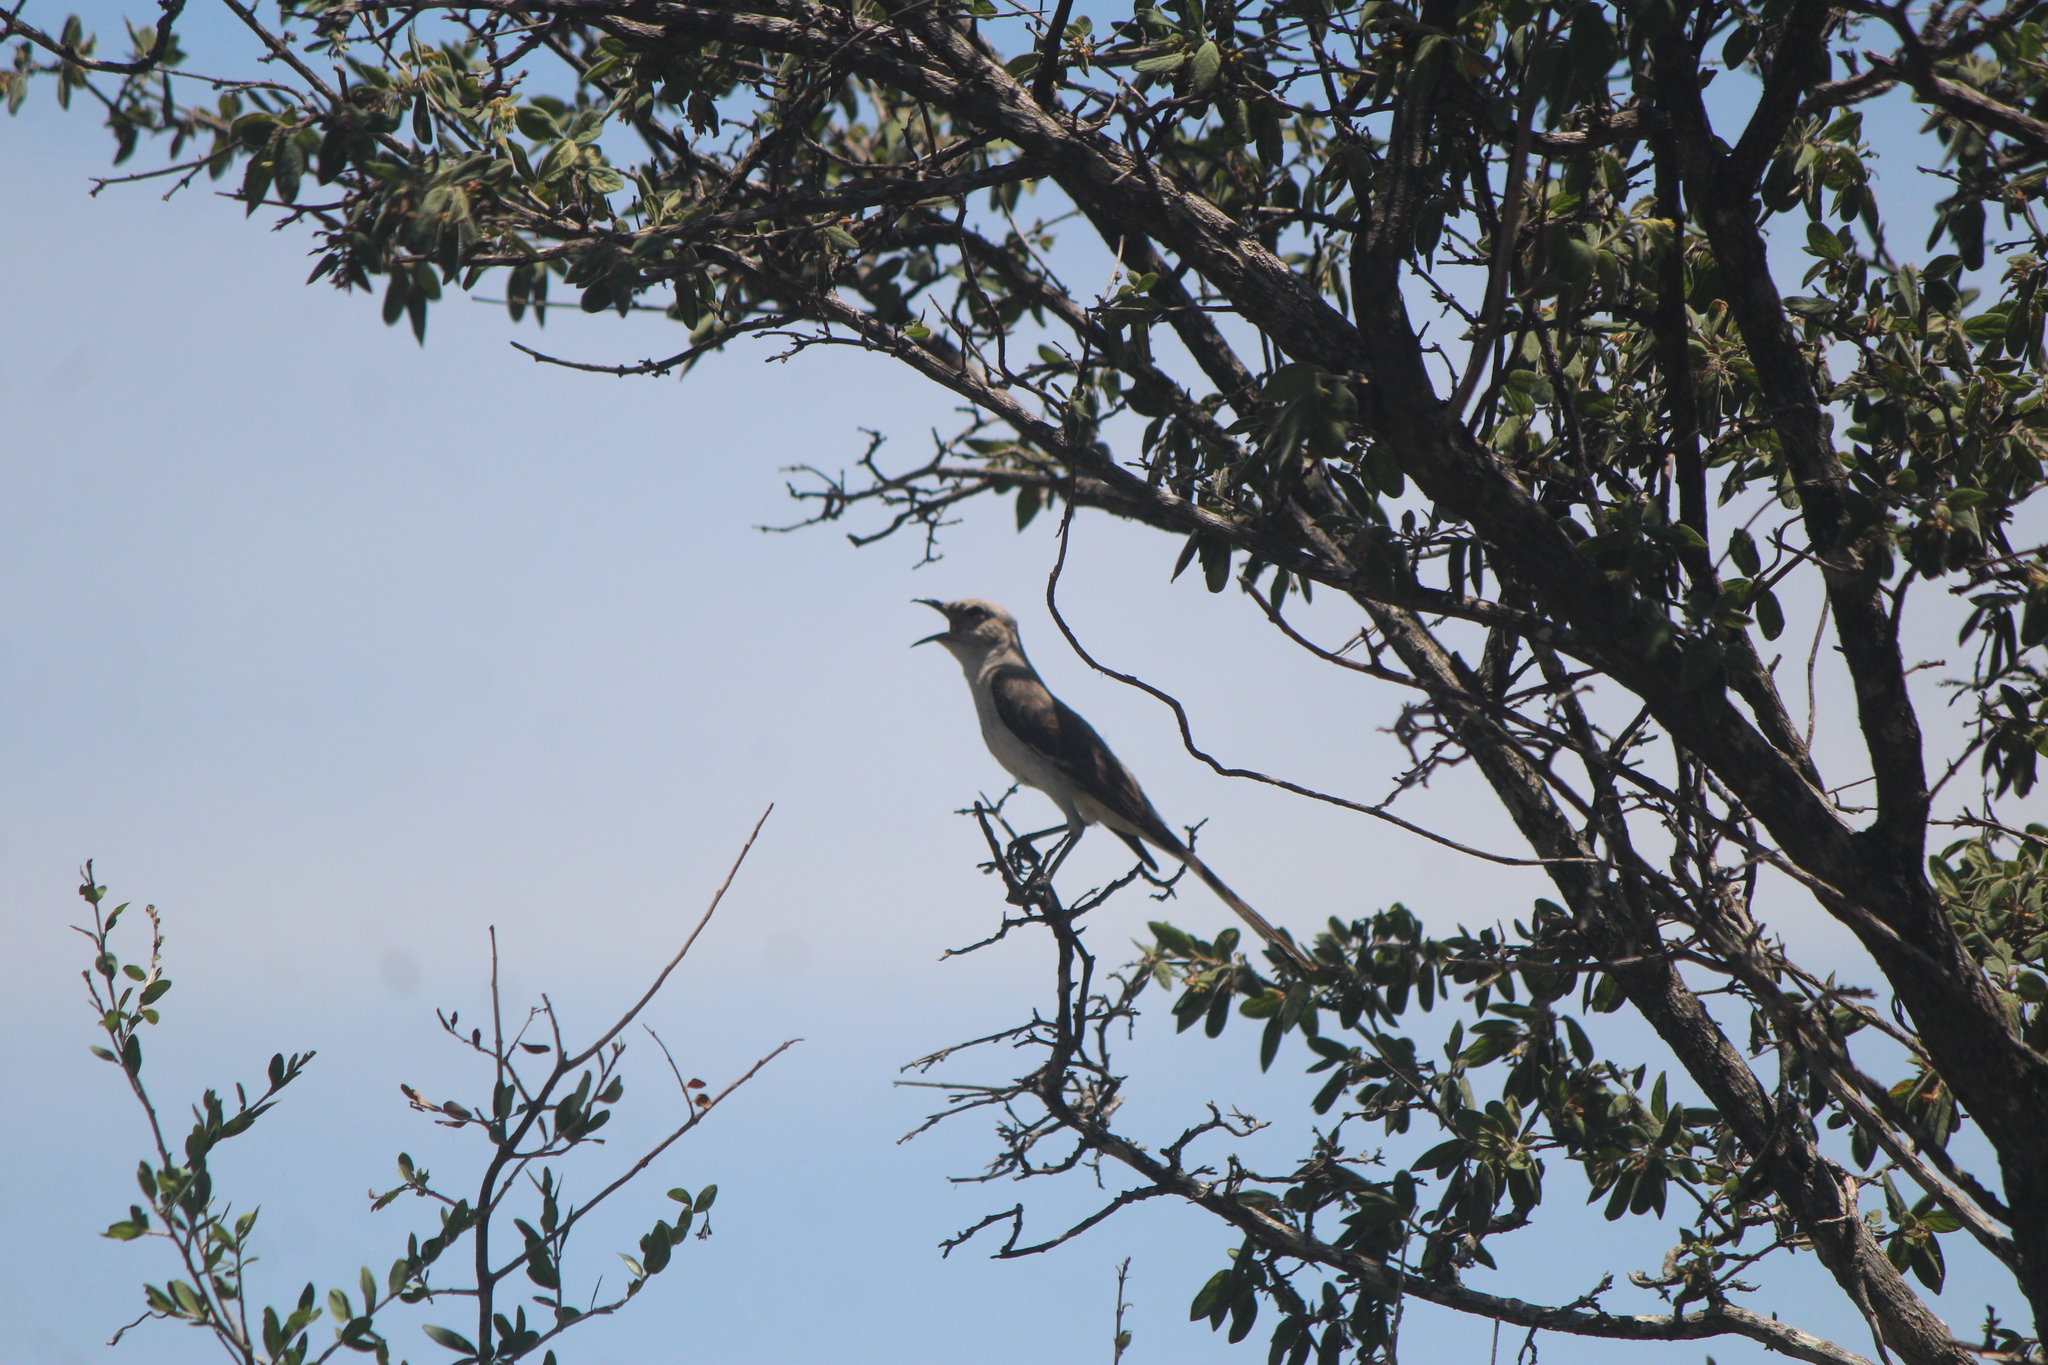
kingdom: Animalia
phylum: Chordata
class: Aves
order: Passeriformes
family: Mimidae
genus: Mimus
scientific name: Mimus polyglottos
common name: Northern mockingbird
